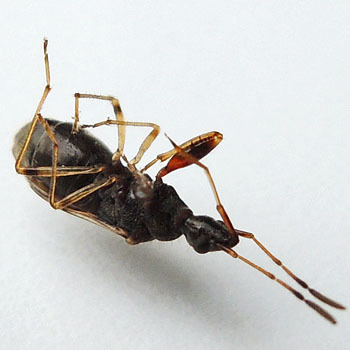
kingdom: Animalia
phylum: Arthropoda
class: Insecta
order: Hemiptera
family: Rhyparochromidae
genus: Heraeus
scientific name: Heraeus plebejus
